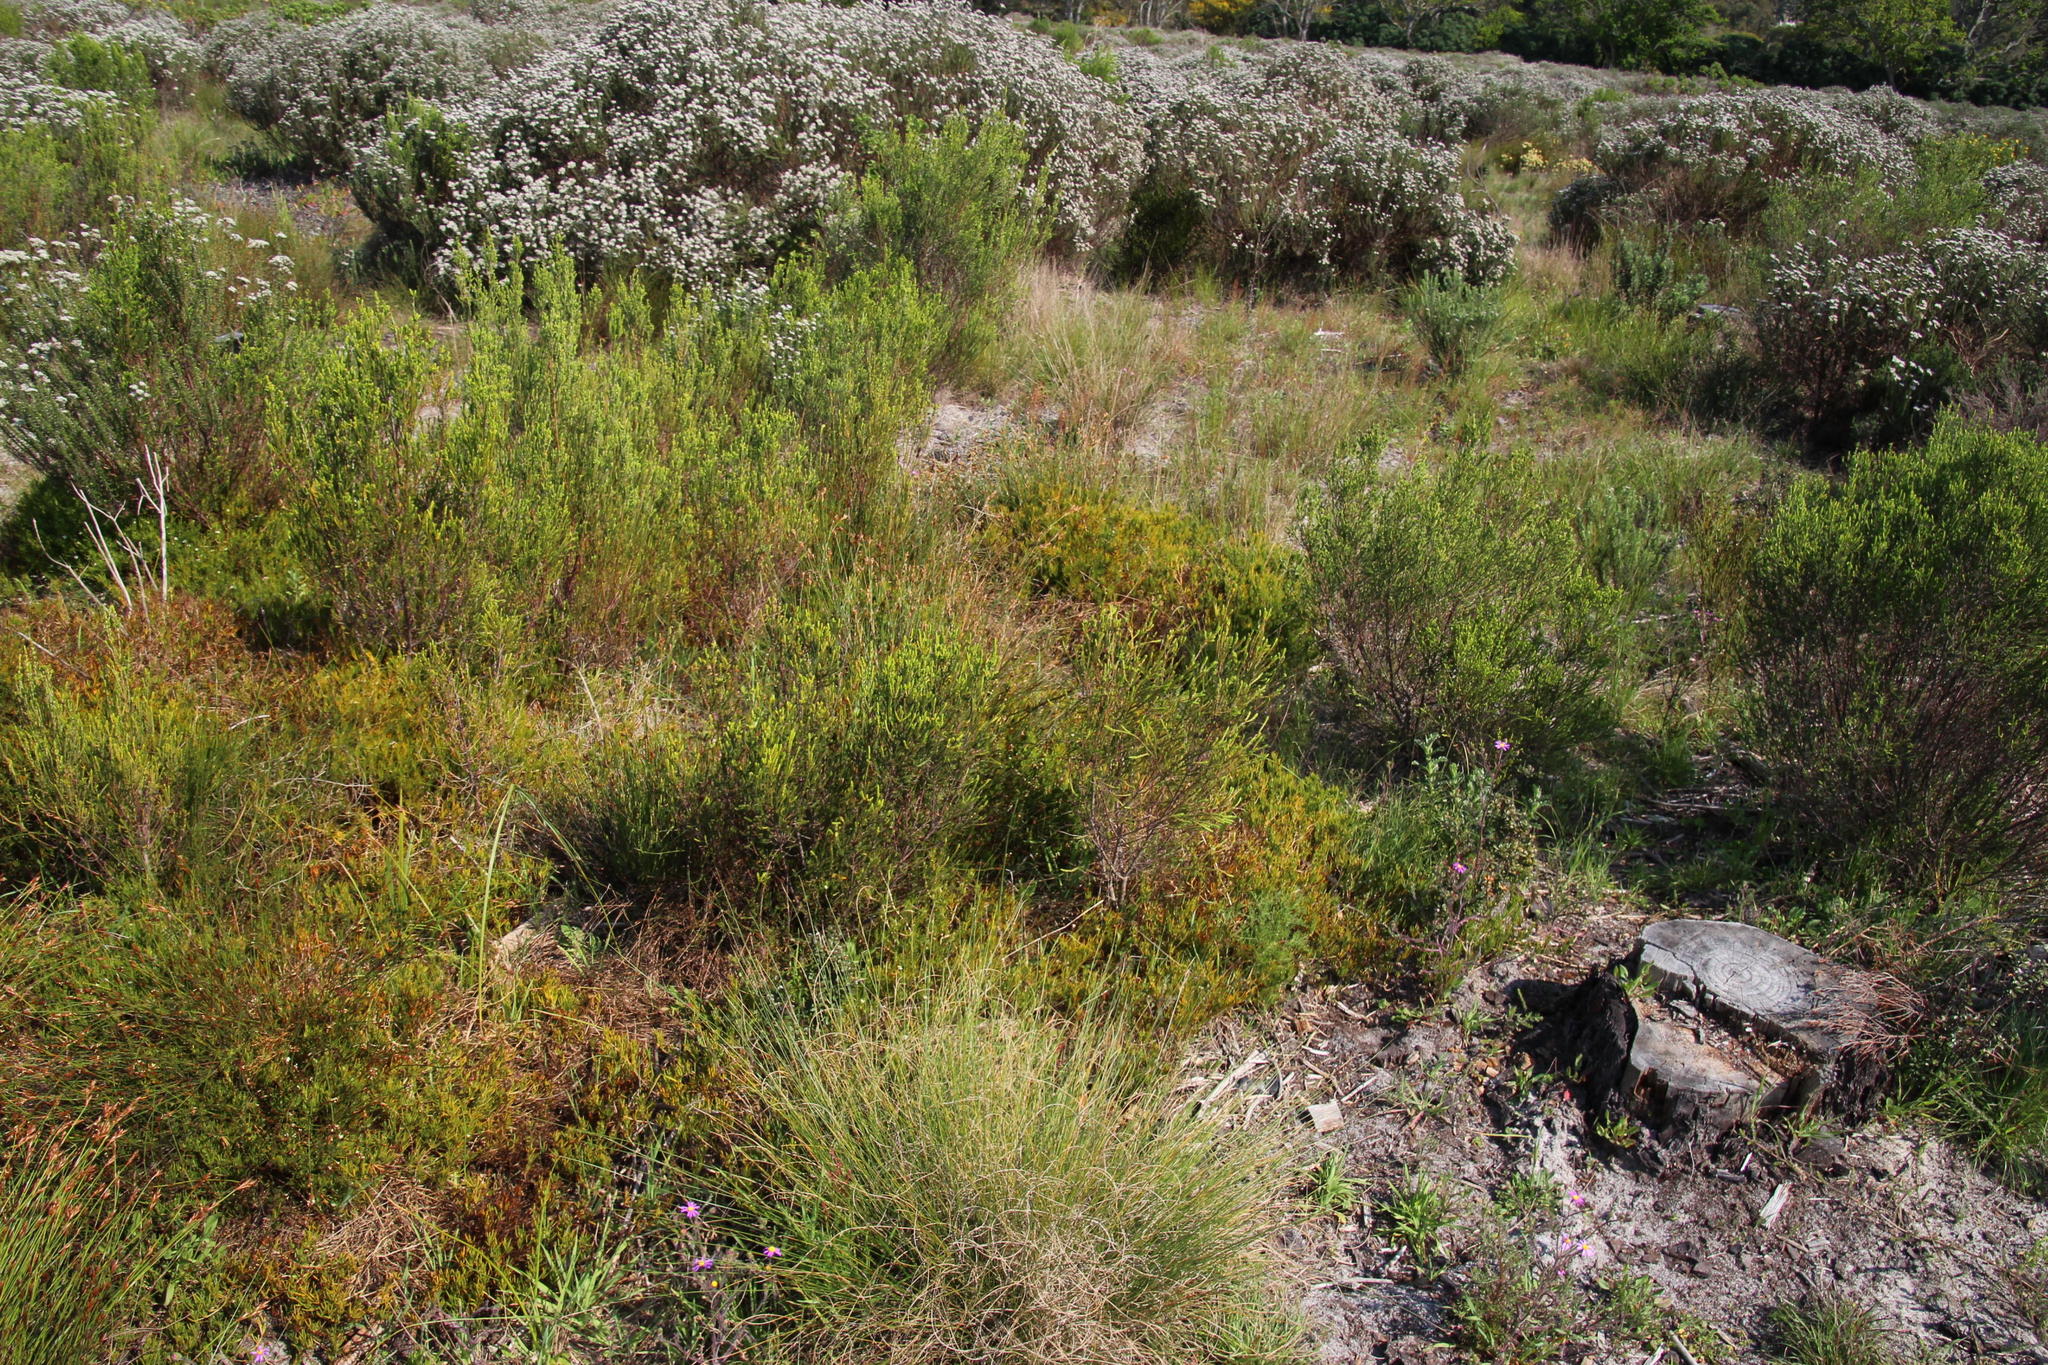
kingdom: Plantae
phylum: Tracheophyta
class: Magnoliopsida
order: Caryophyllales
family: Aizoaceae
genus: Acrosanthes
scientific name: Acrosanthes teretifolia
